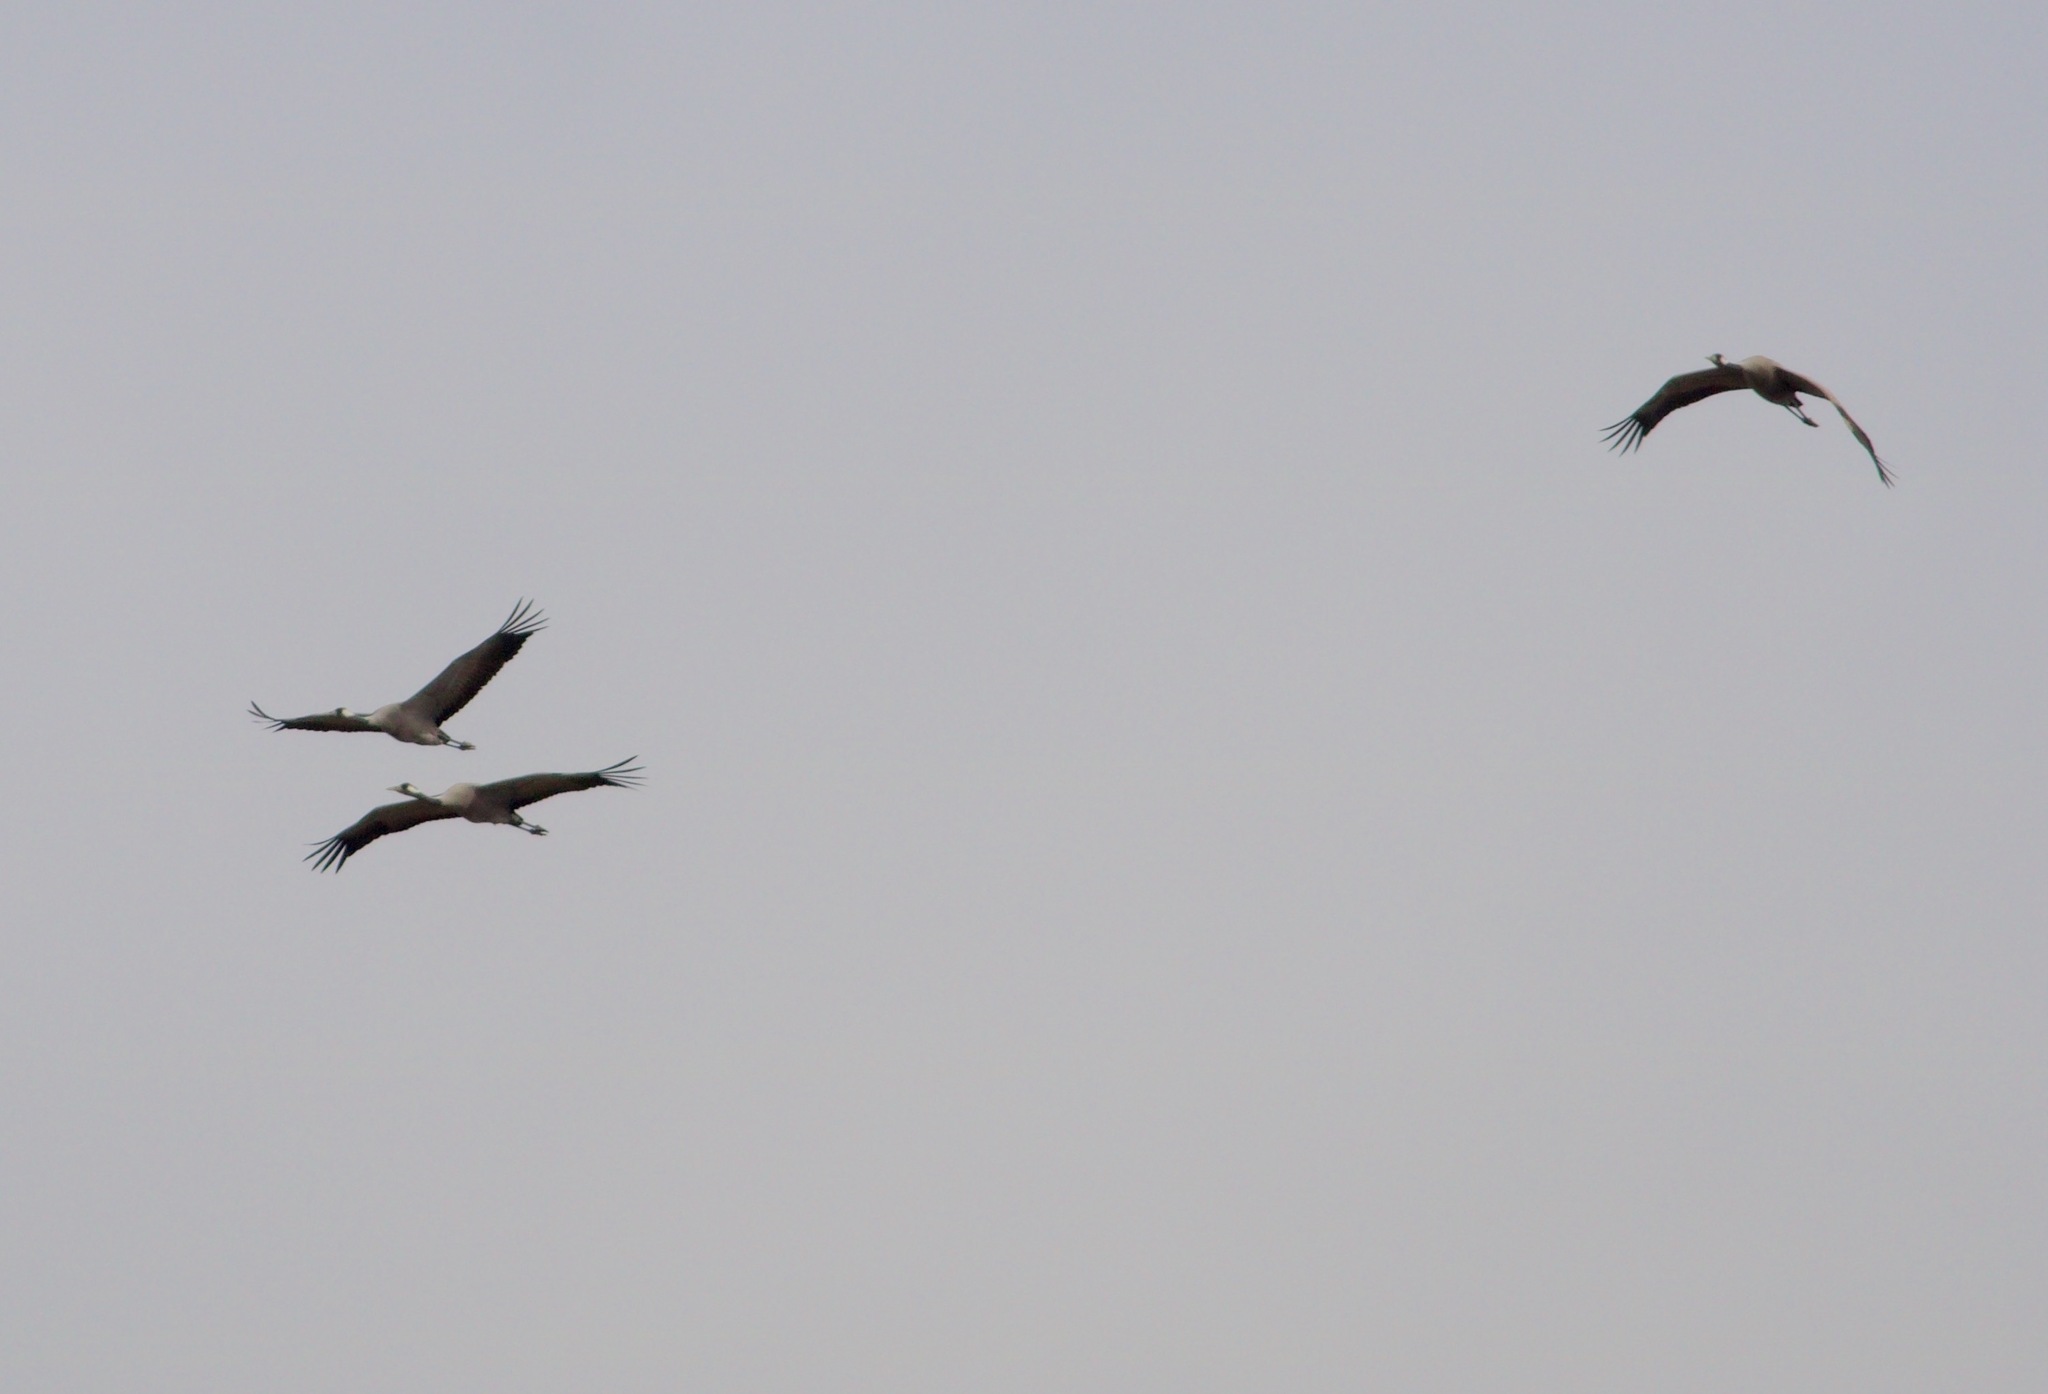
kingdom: Animalia
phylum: Chordata
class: Aves
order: Gruiformes
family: Gruidae
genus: Grus
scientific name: Grus grus
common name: Common crane
